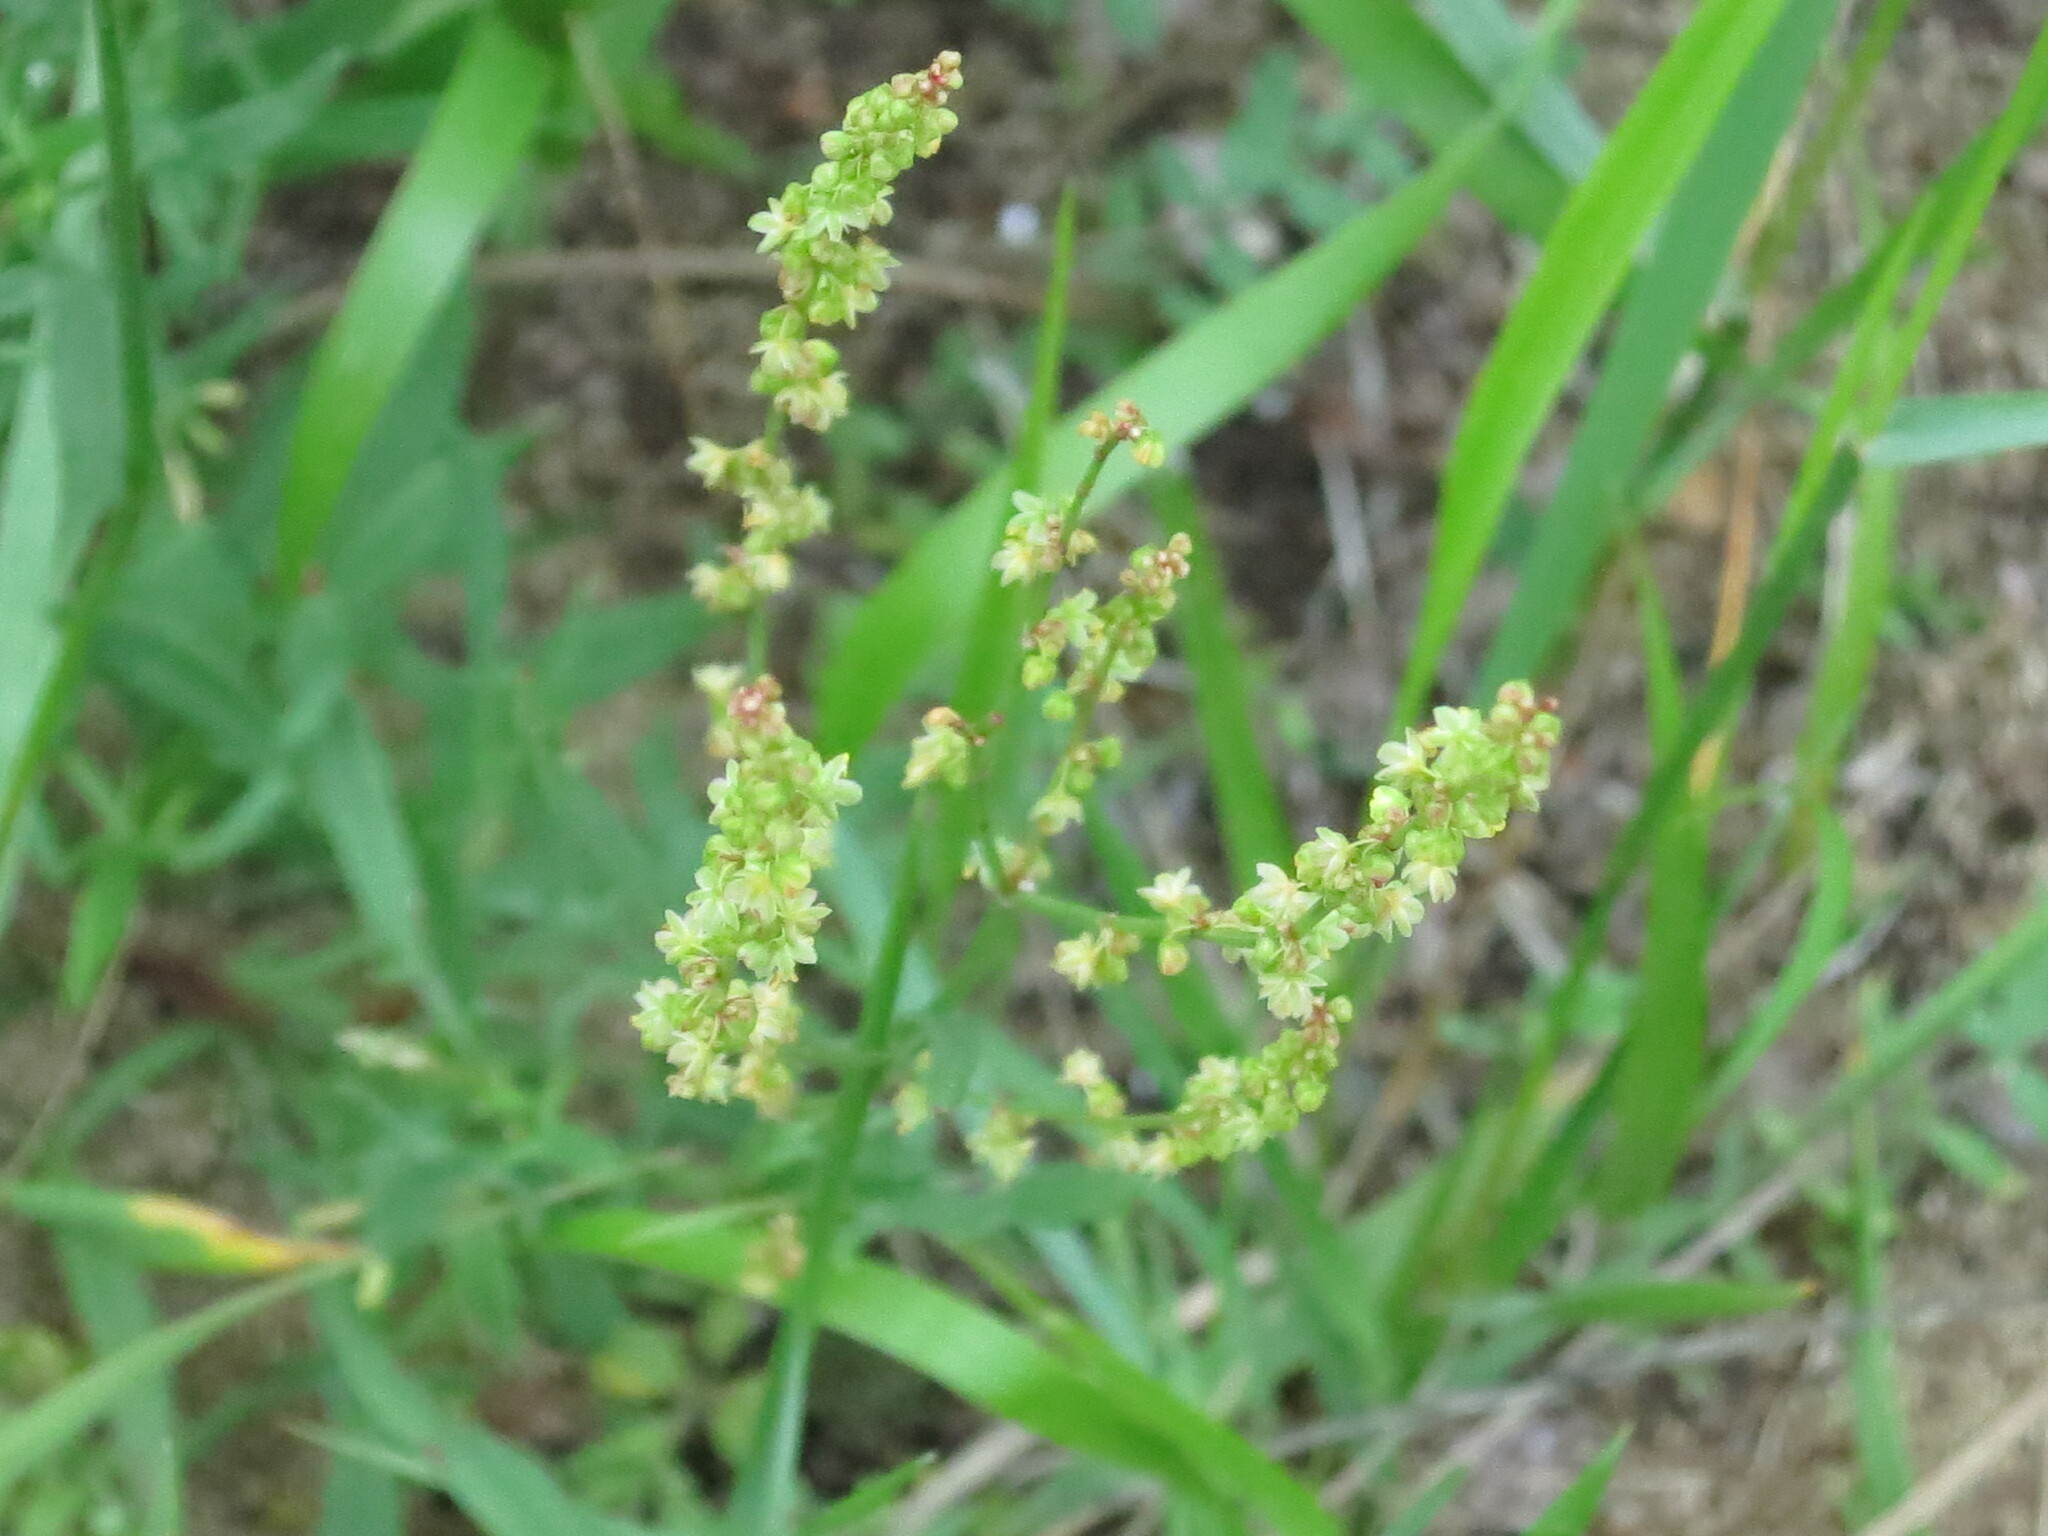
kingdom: Plantae
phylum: Tracheophyta
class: Magnoliopsida
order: Caryophyllales
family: Polygonaceae
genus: Rumex
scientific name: Rumex acetosella
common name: Common sheep sorrel
